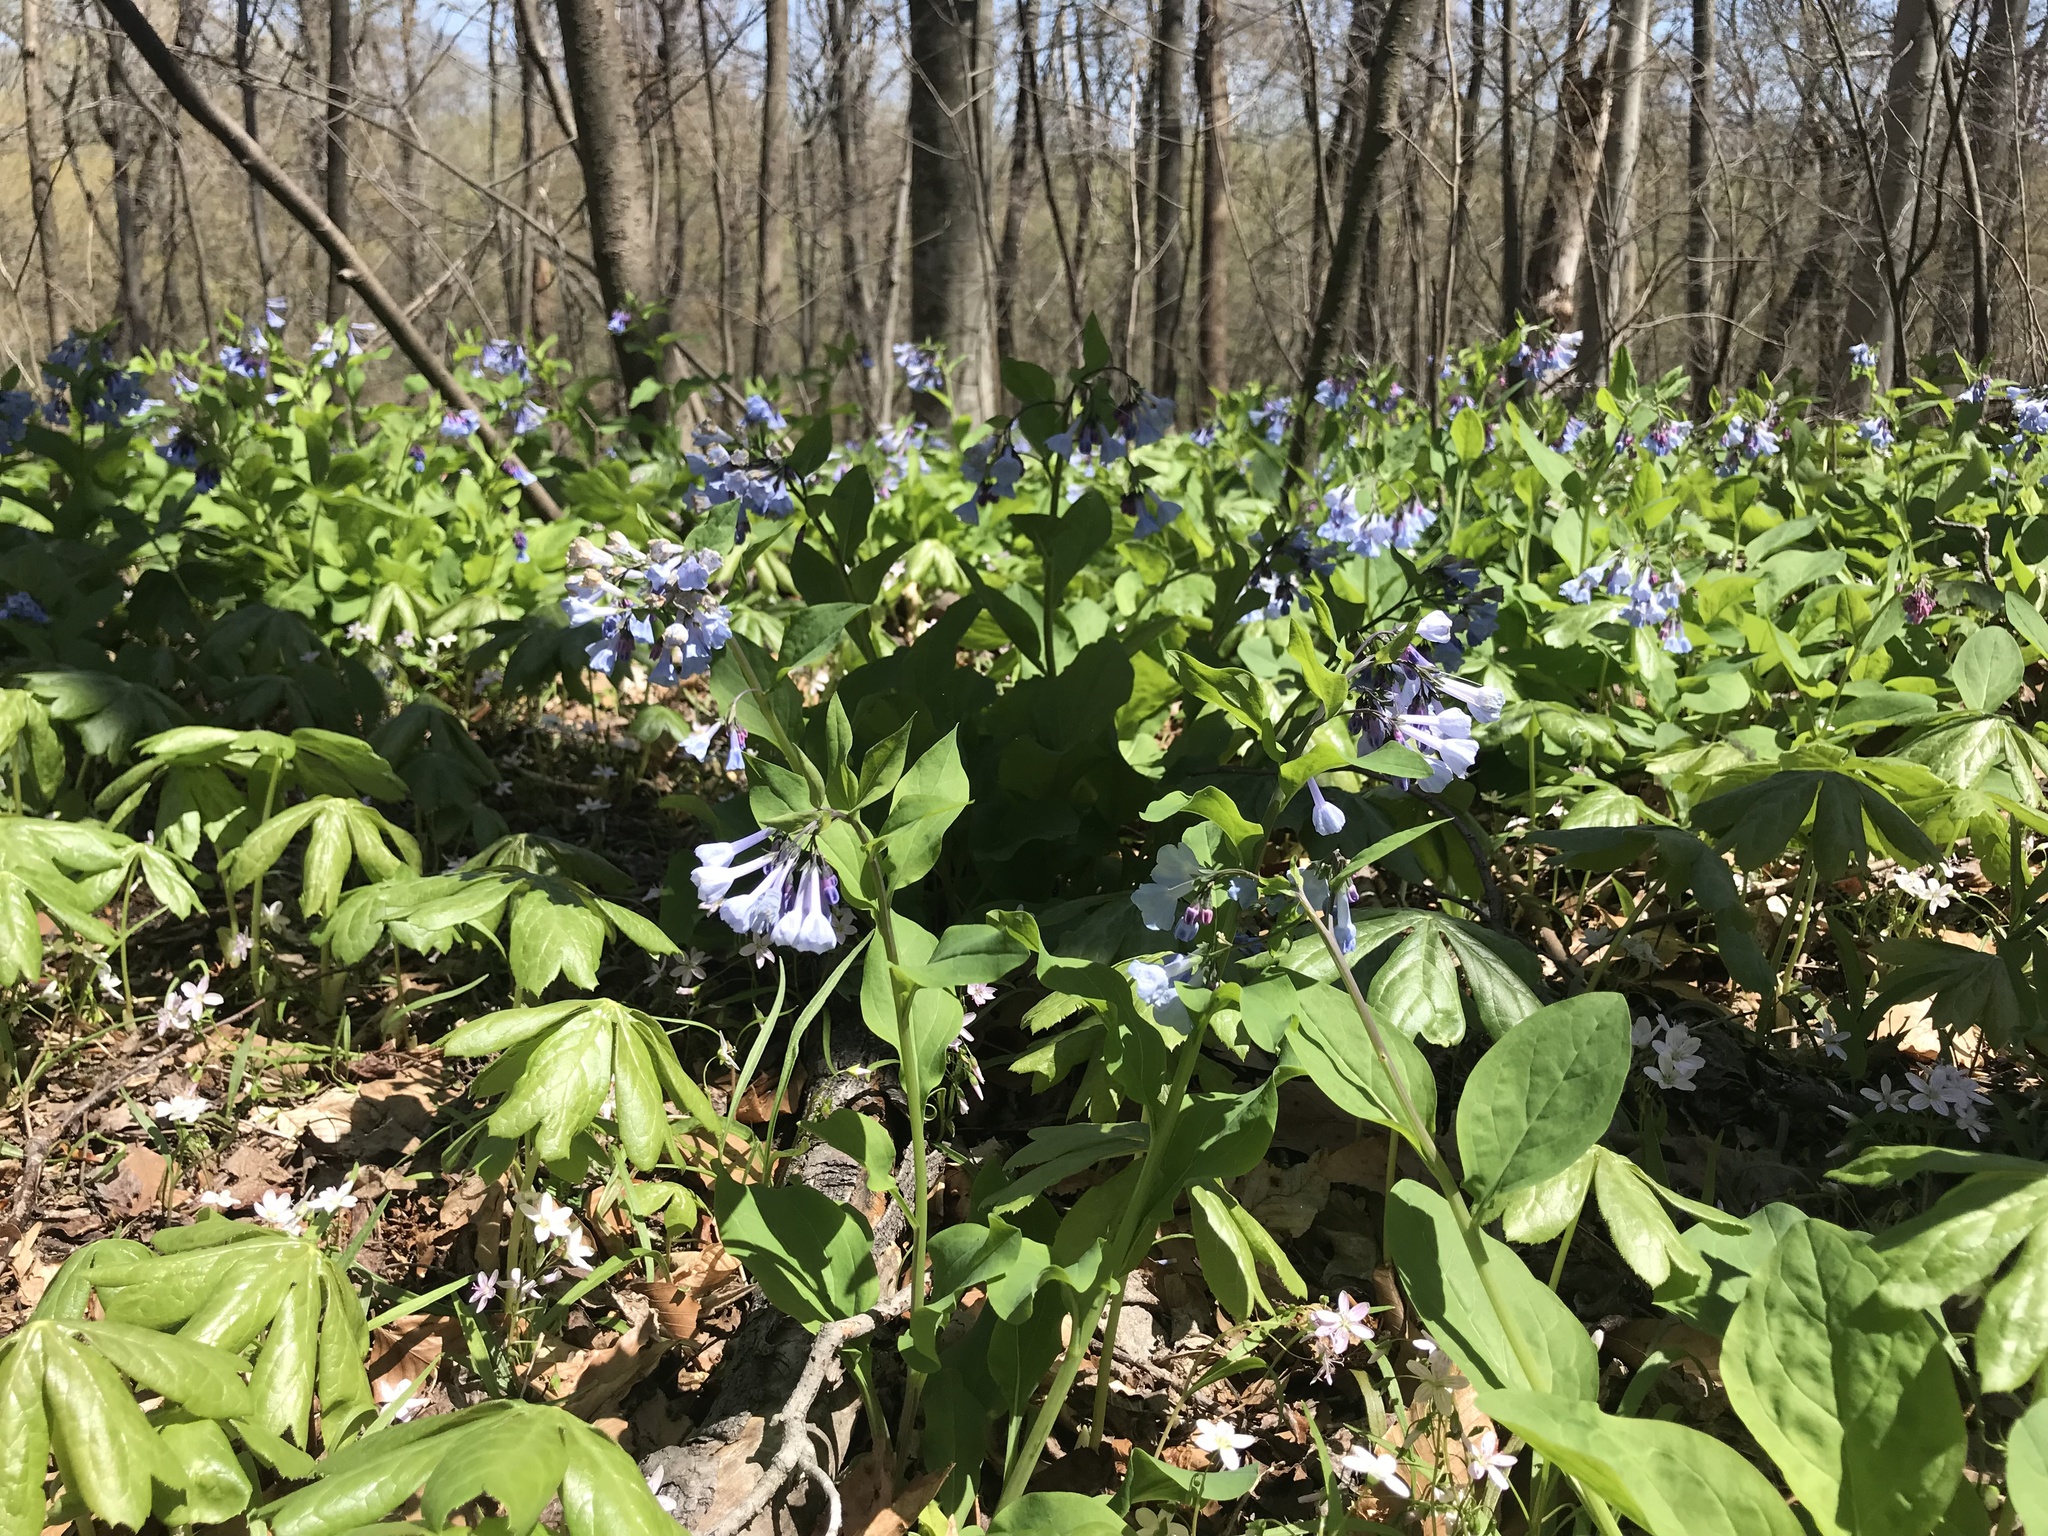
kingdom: Plantae
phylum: Tracheophyta
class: Magnoliopsida
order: Boraginales
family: Boraginaceae
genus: Mertensia
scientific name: Mertensia virginica
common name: Virginia bluebells
